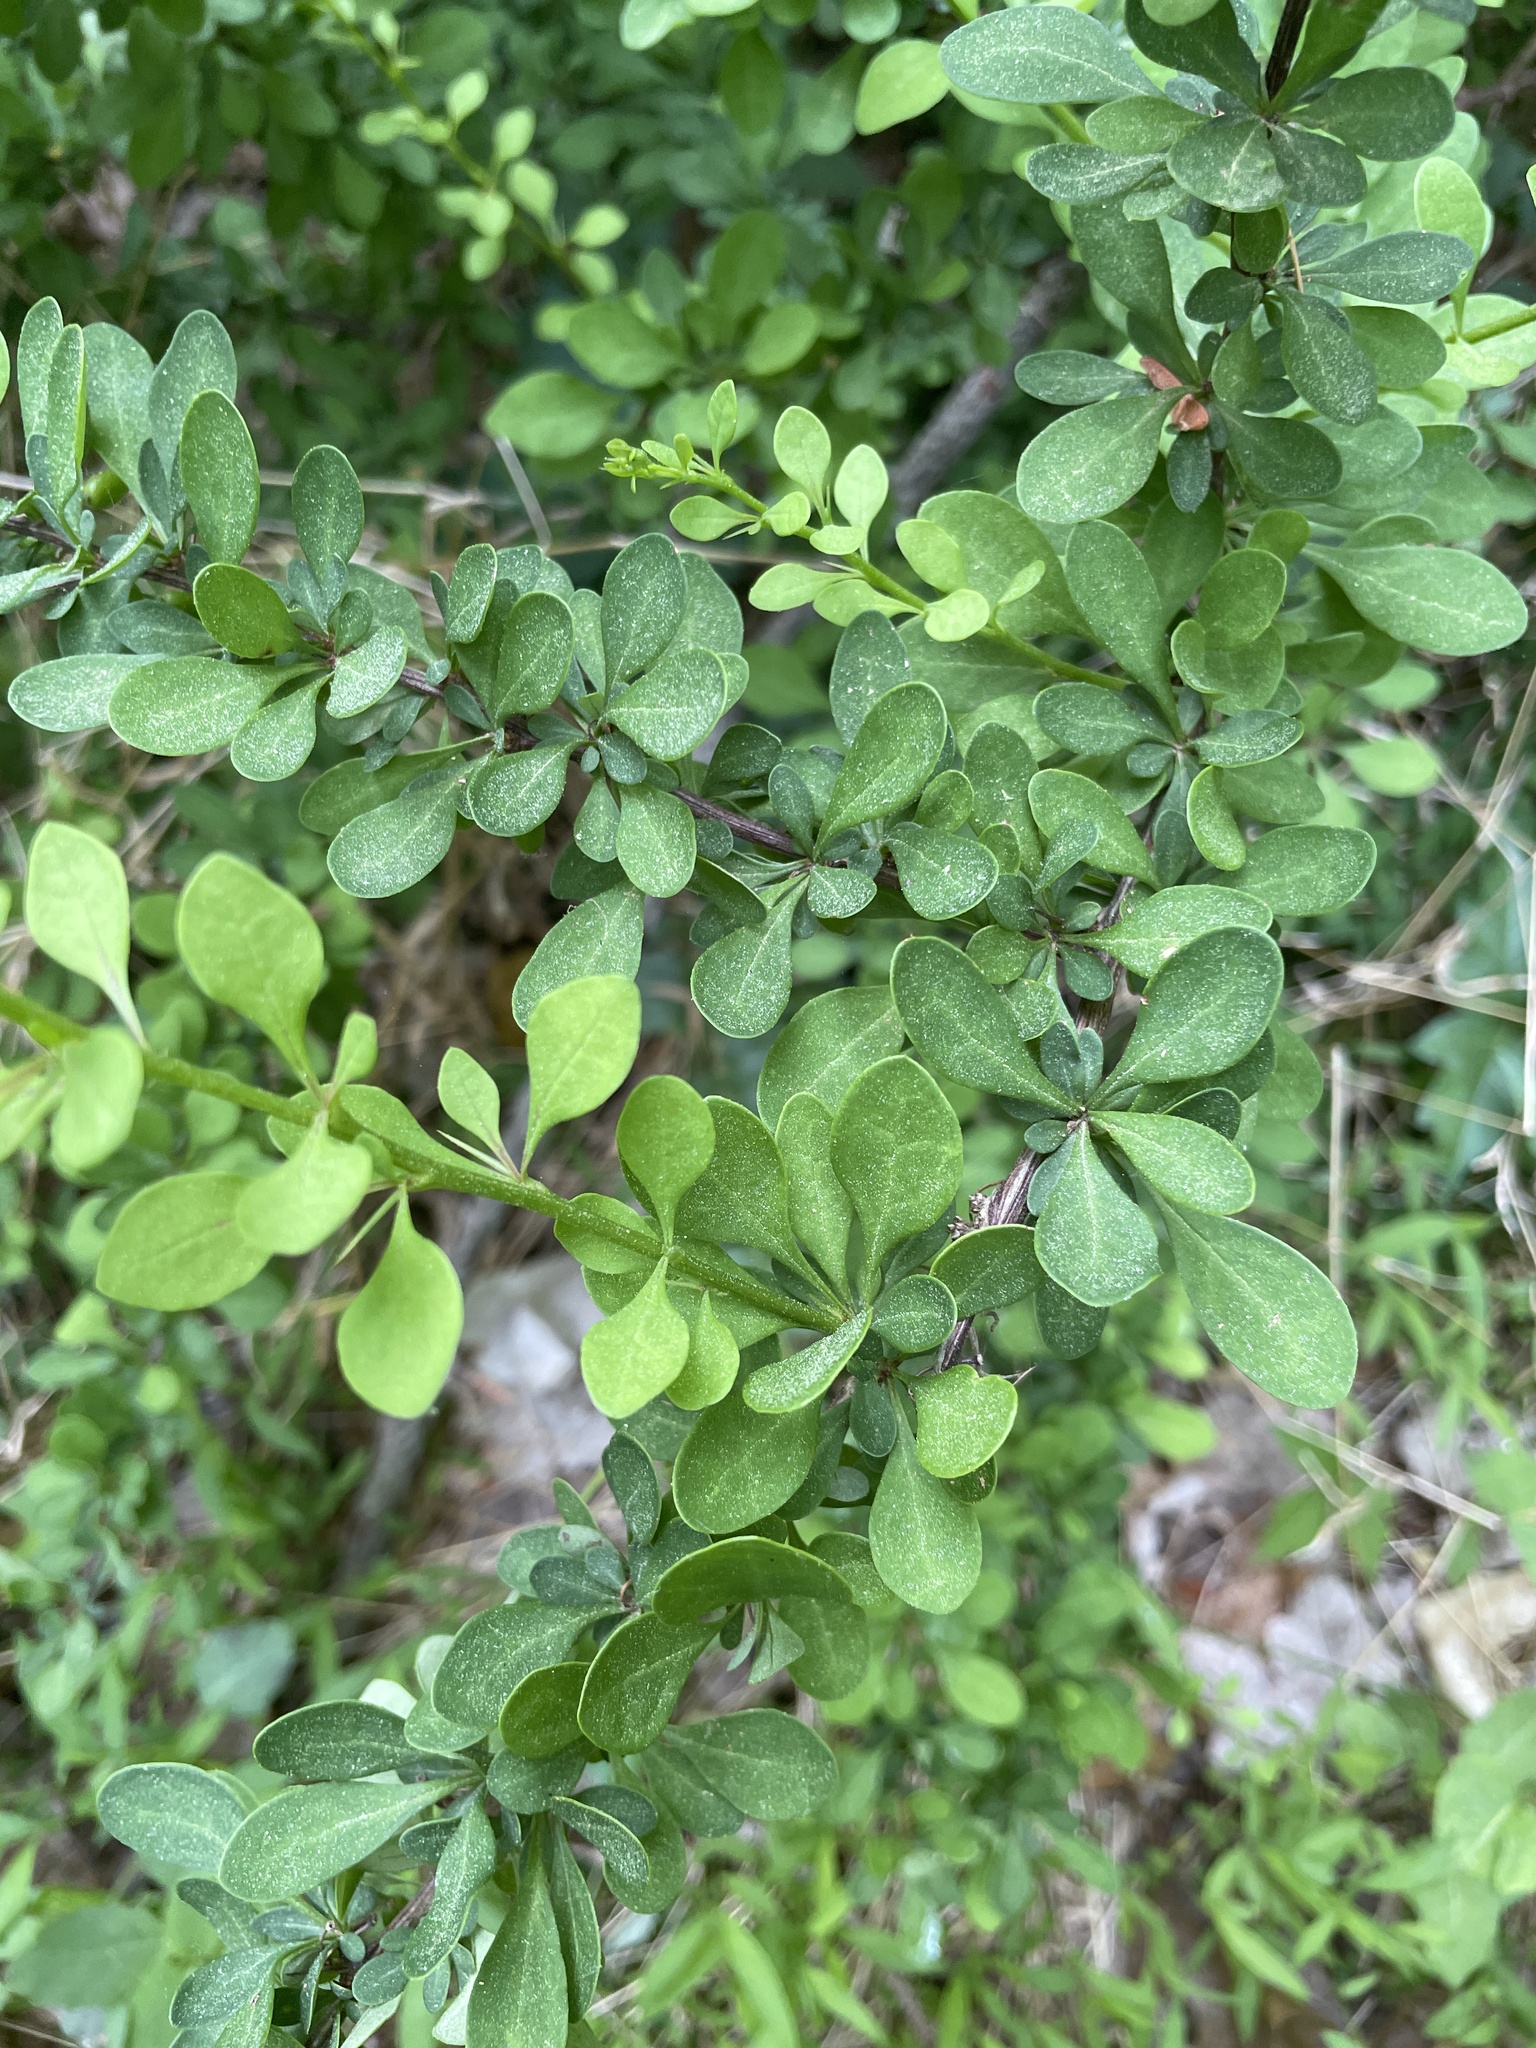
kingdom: Plantae
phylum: Tracheophyta
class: Magnoliopsida
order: Ranunculales
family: Berberidaceae
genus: Berberis
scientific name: Berberis thunbergii
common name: Japanese barberry
